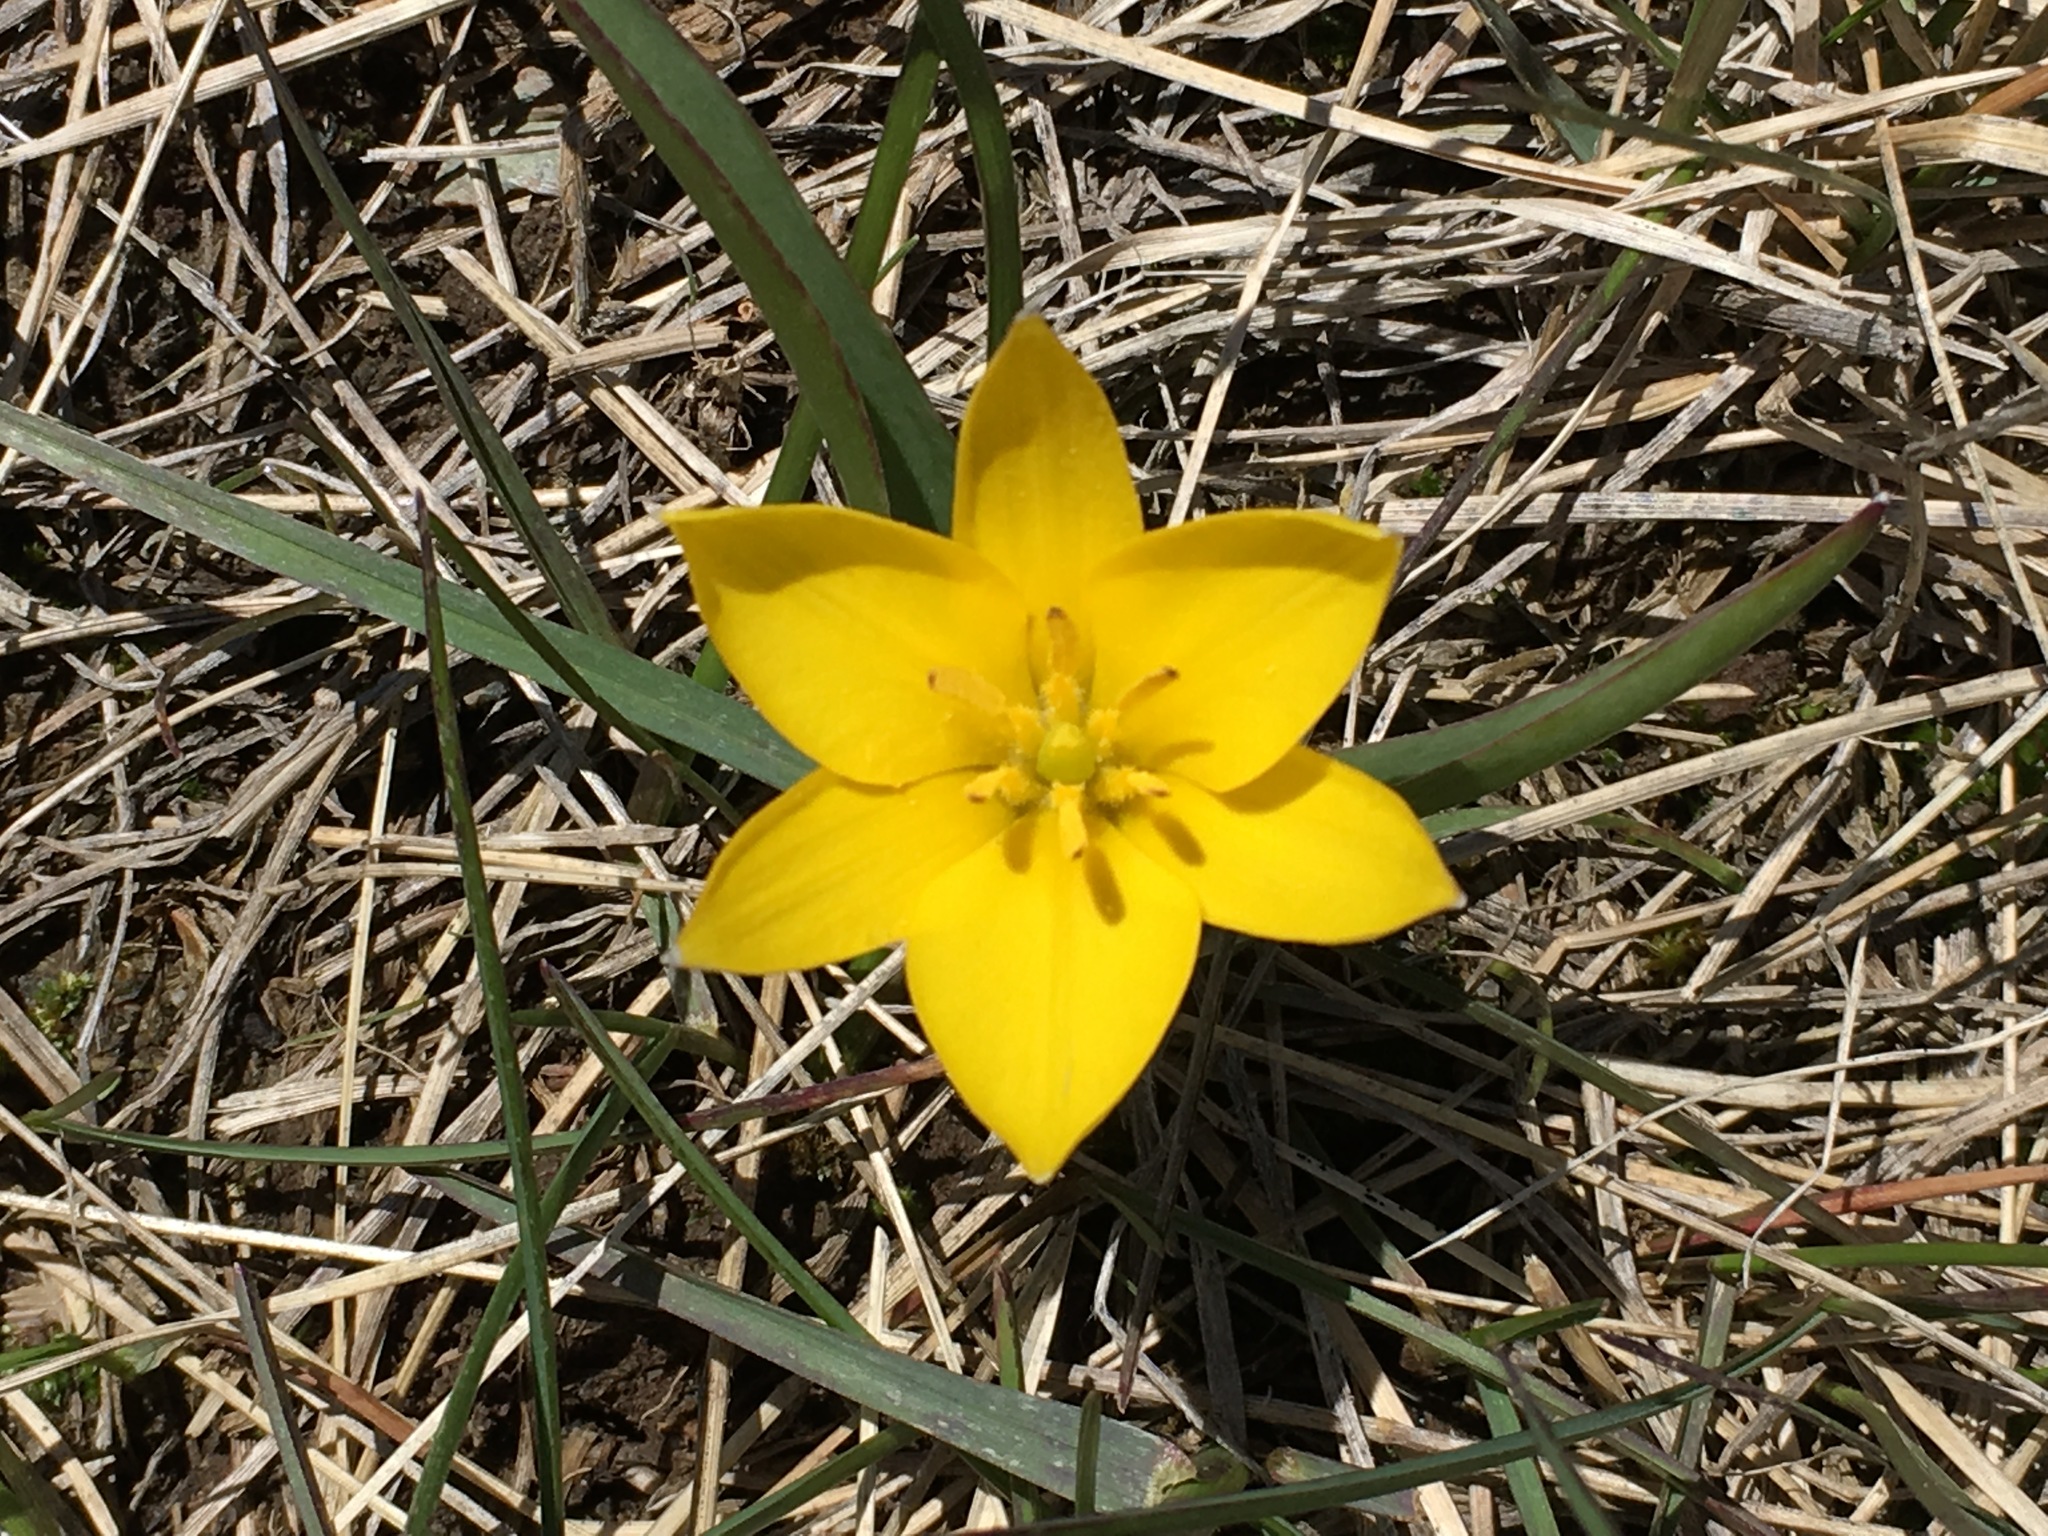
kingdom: Plantae
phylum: Tracheophyta
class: Liliopsida
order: Liliales
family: Liliaceae
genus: Tulipa
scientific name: Tulipa dasystemon
